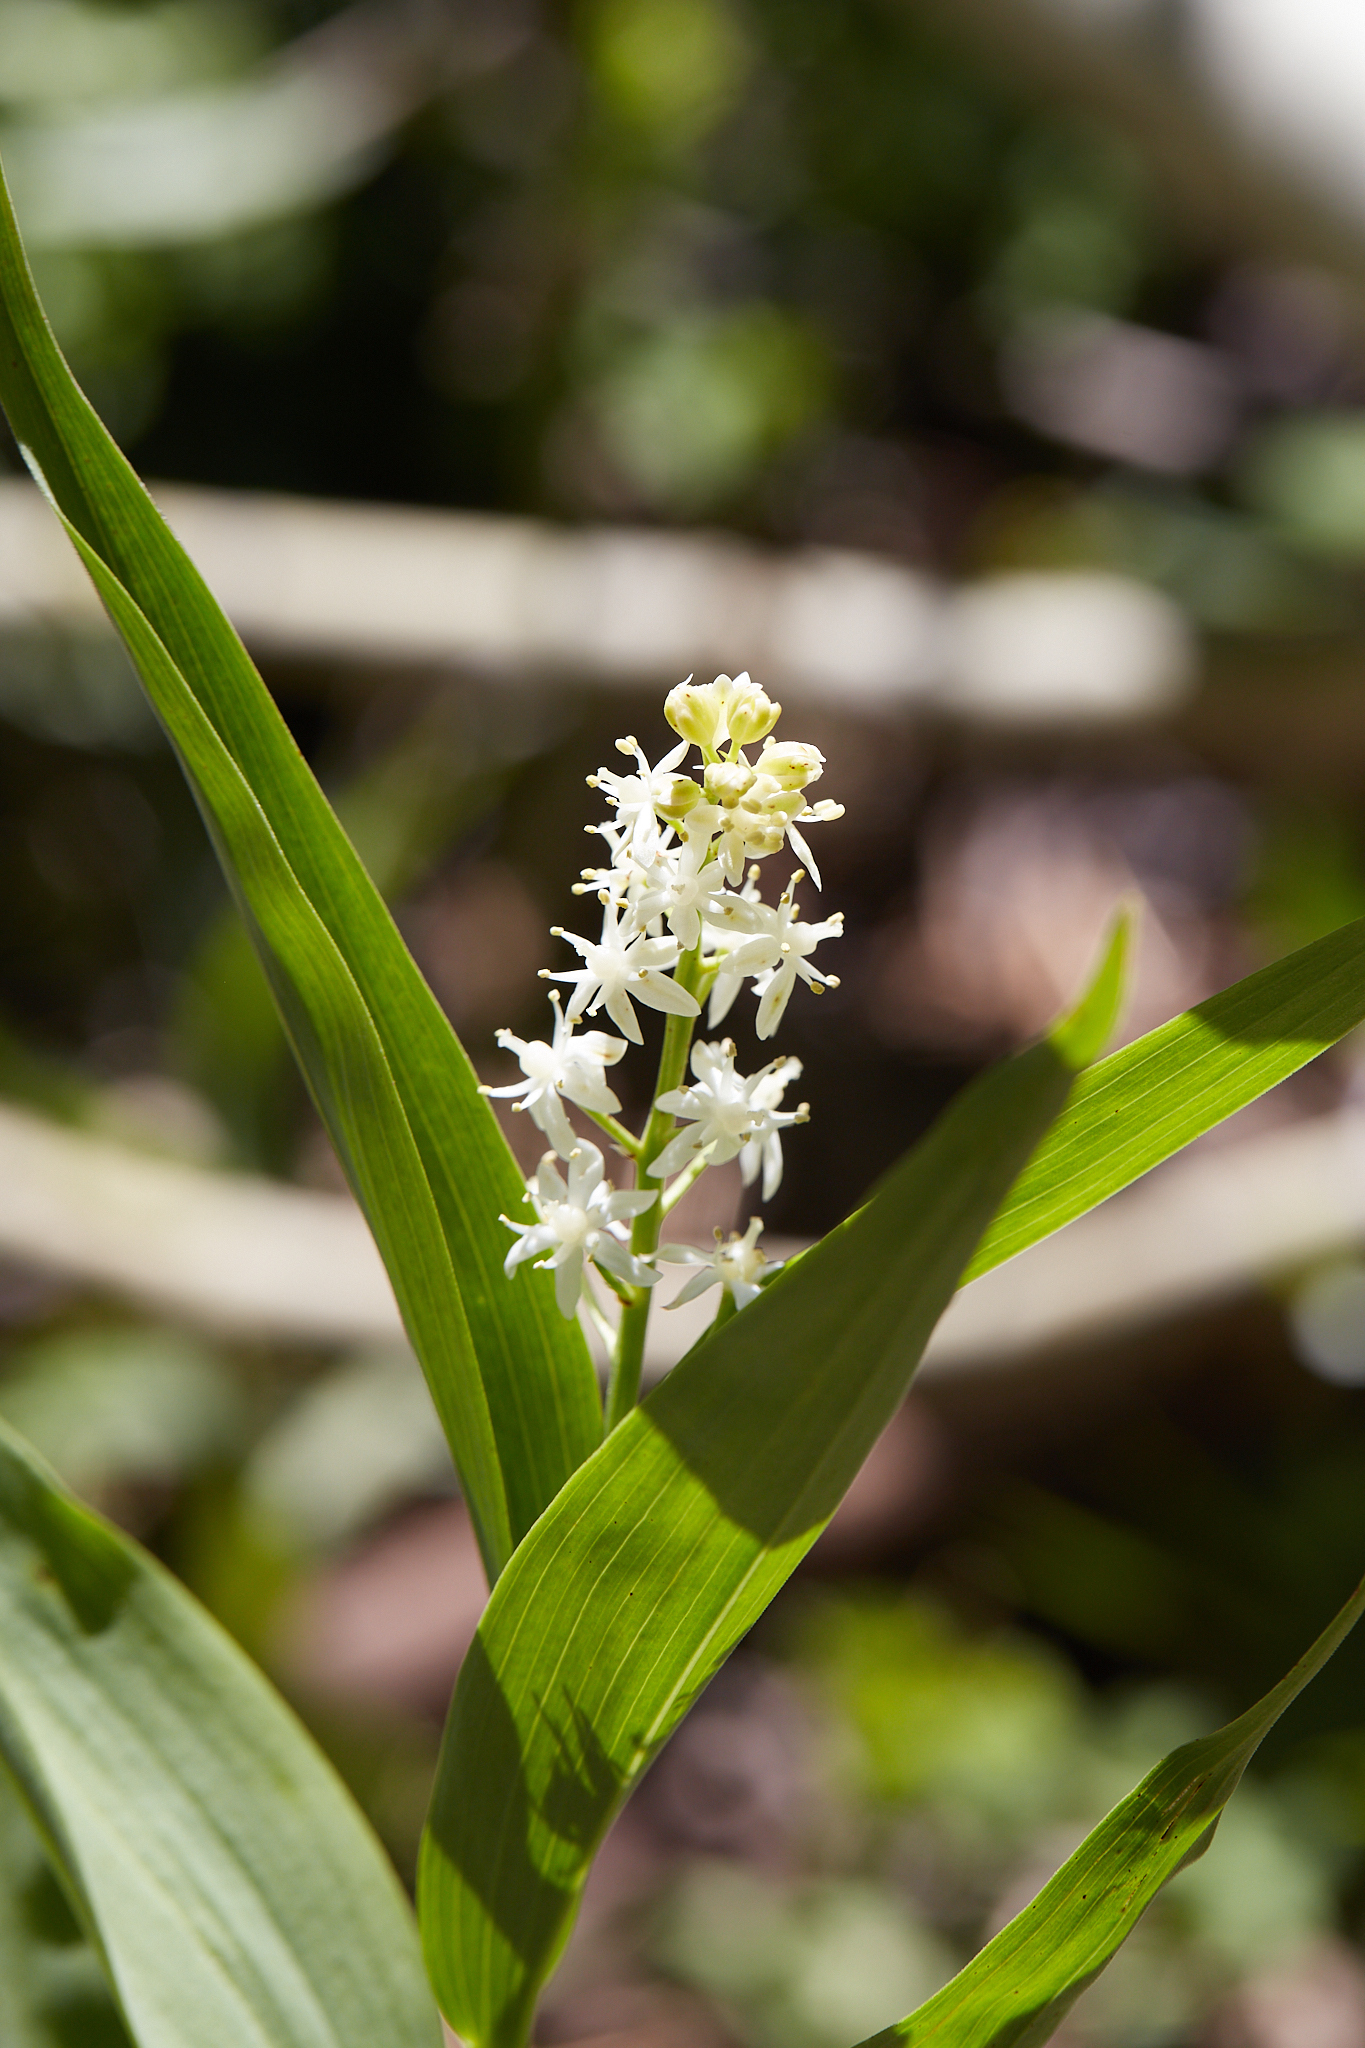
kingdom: Plantae
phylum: Tracheophyta
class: Liliopsida
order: Asparagales
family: Asparagaceae
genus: Maianthemum
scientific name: Maianthemum stellatum
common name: Little false solomon's seal
